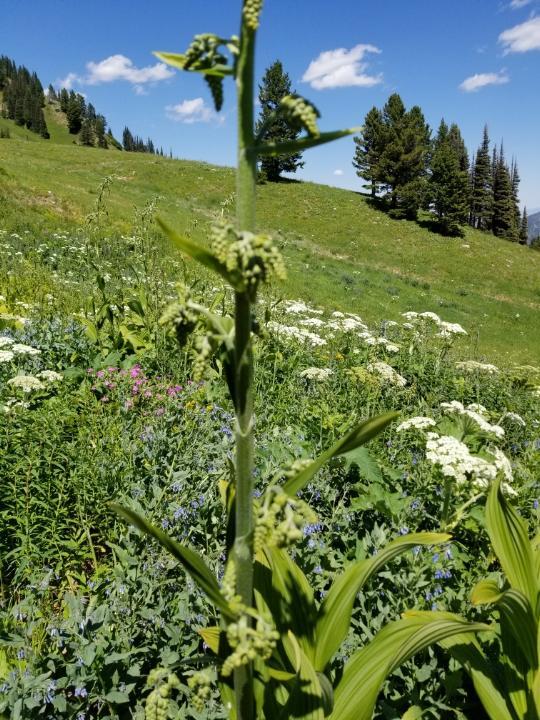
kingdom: Plantae
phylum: Tracheophyta
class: Liliopsida
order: Liliales
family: Melanthiaceae
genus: Veratrum
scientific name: Veratrum viride
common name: American false hellebore
